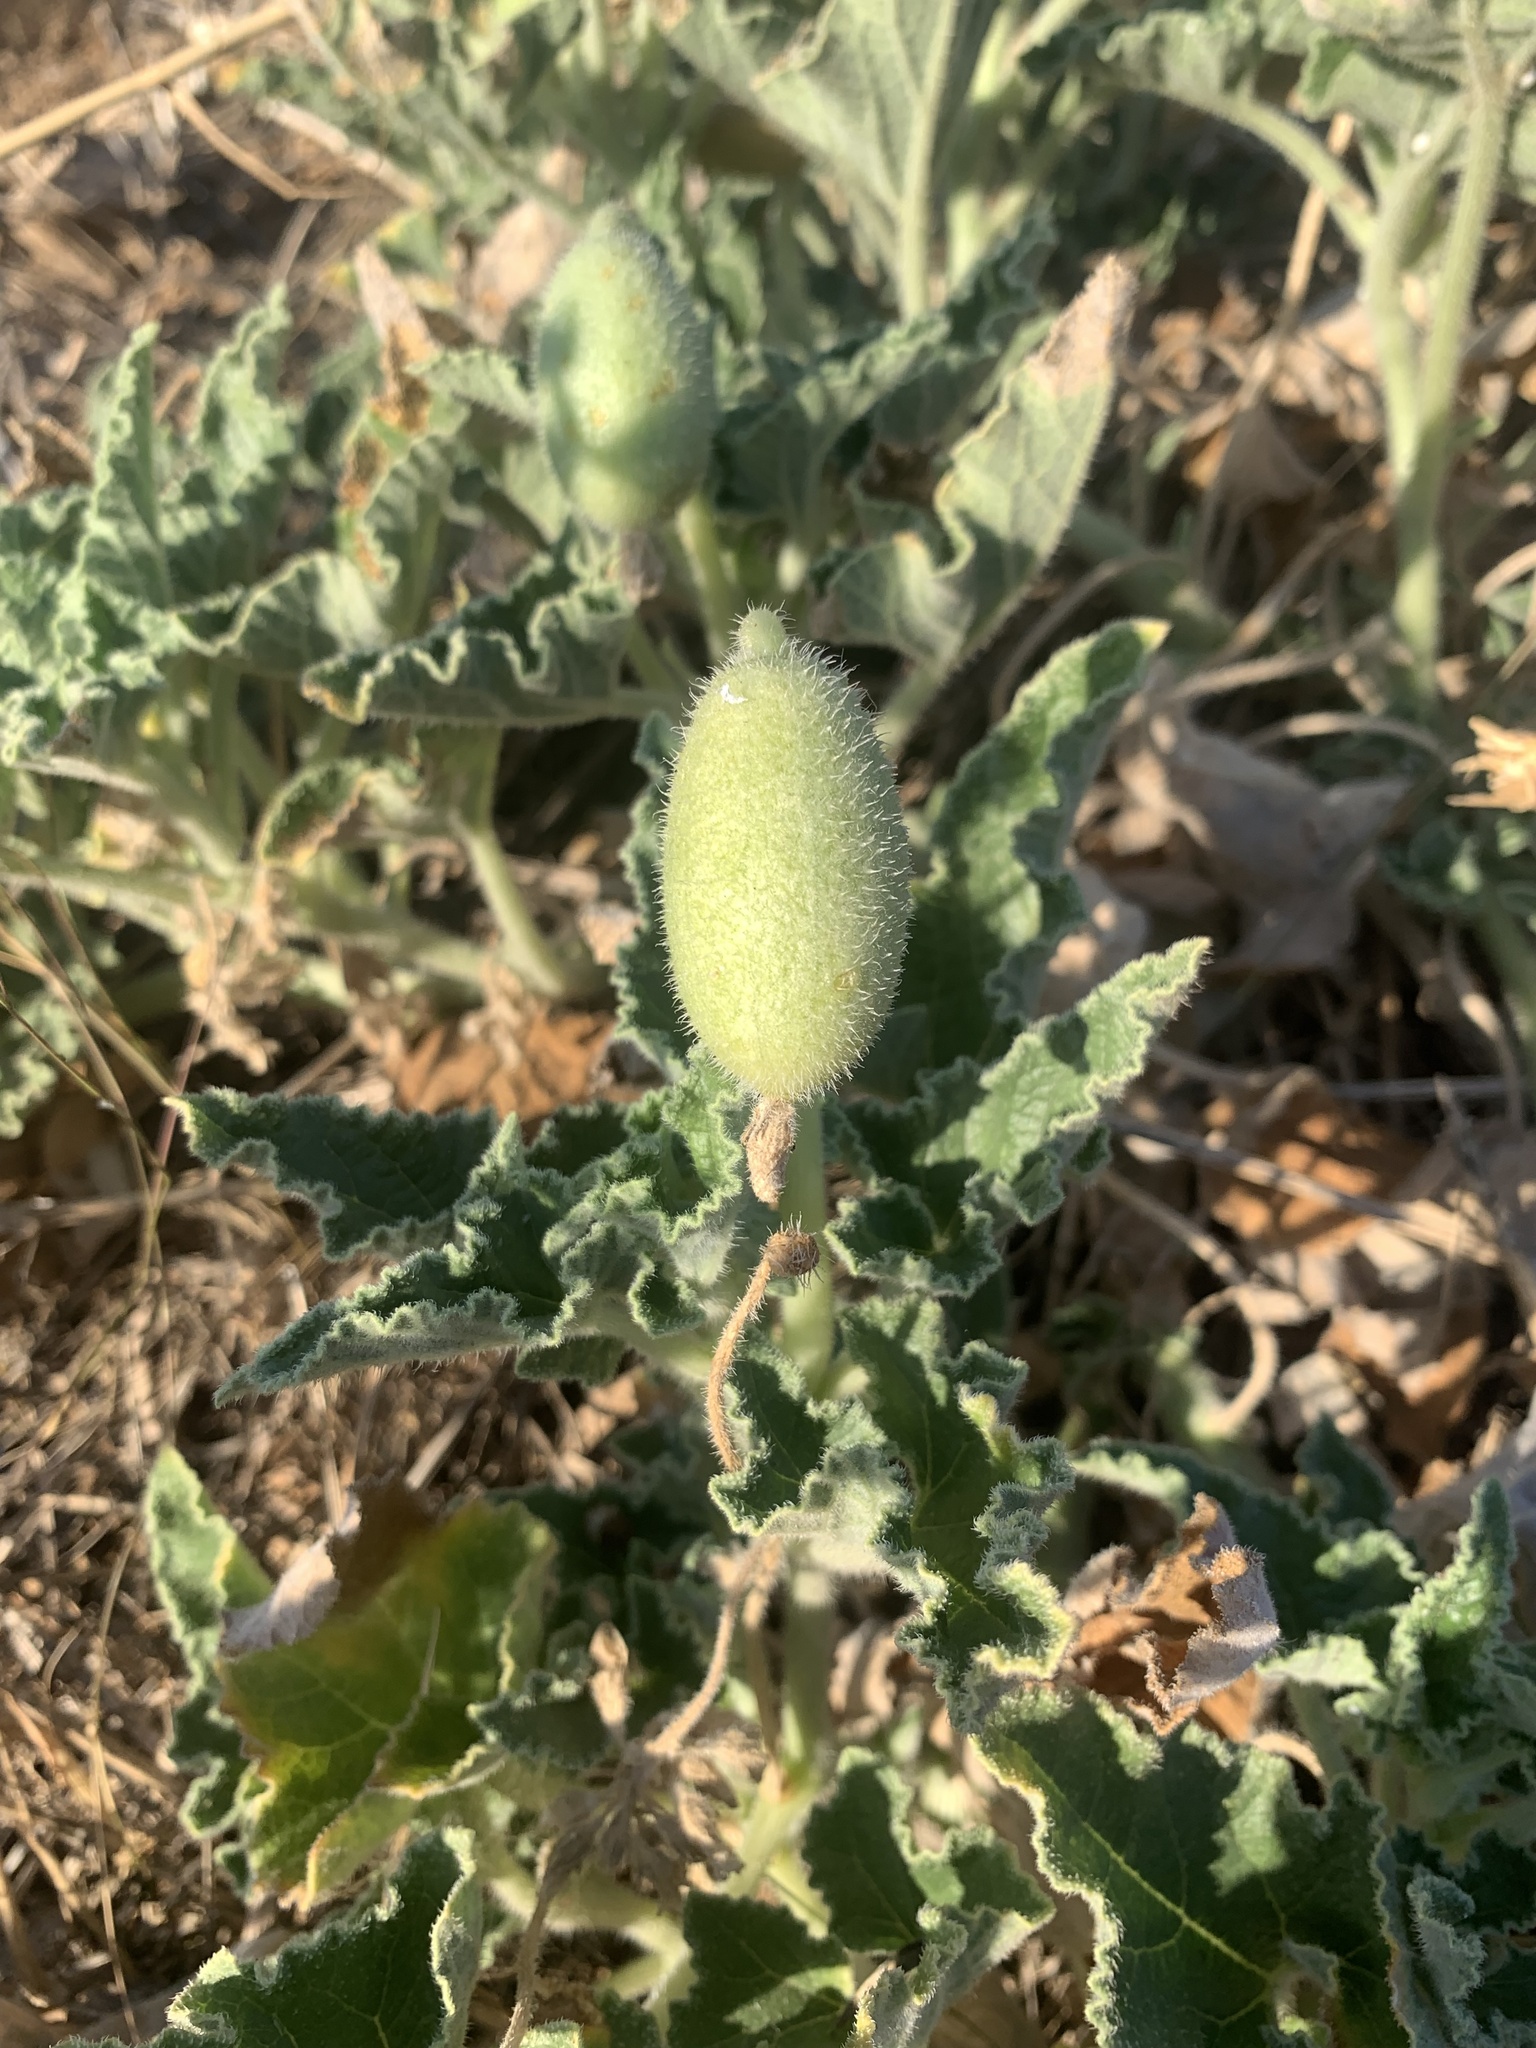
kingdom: Plantae
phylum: Tracheophyta
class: Magnoliopsida
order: Cucurbitales
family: Cucurbitaceae
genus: Ecballium
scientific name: Ecballium elaterium
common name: Squirting cucumber
